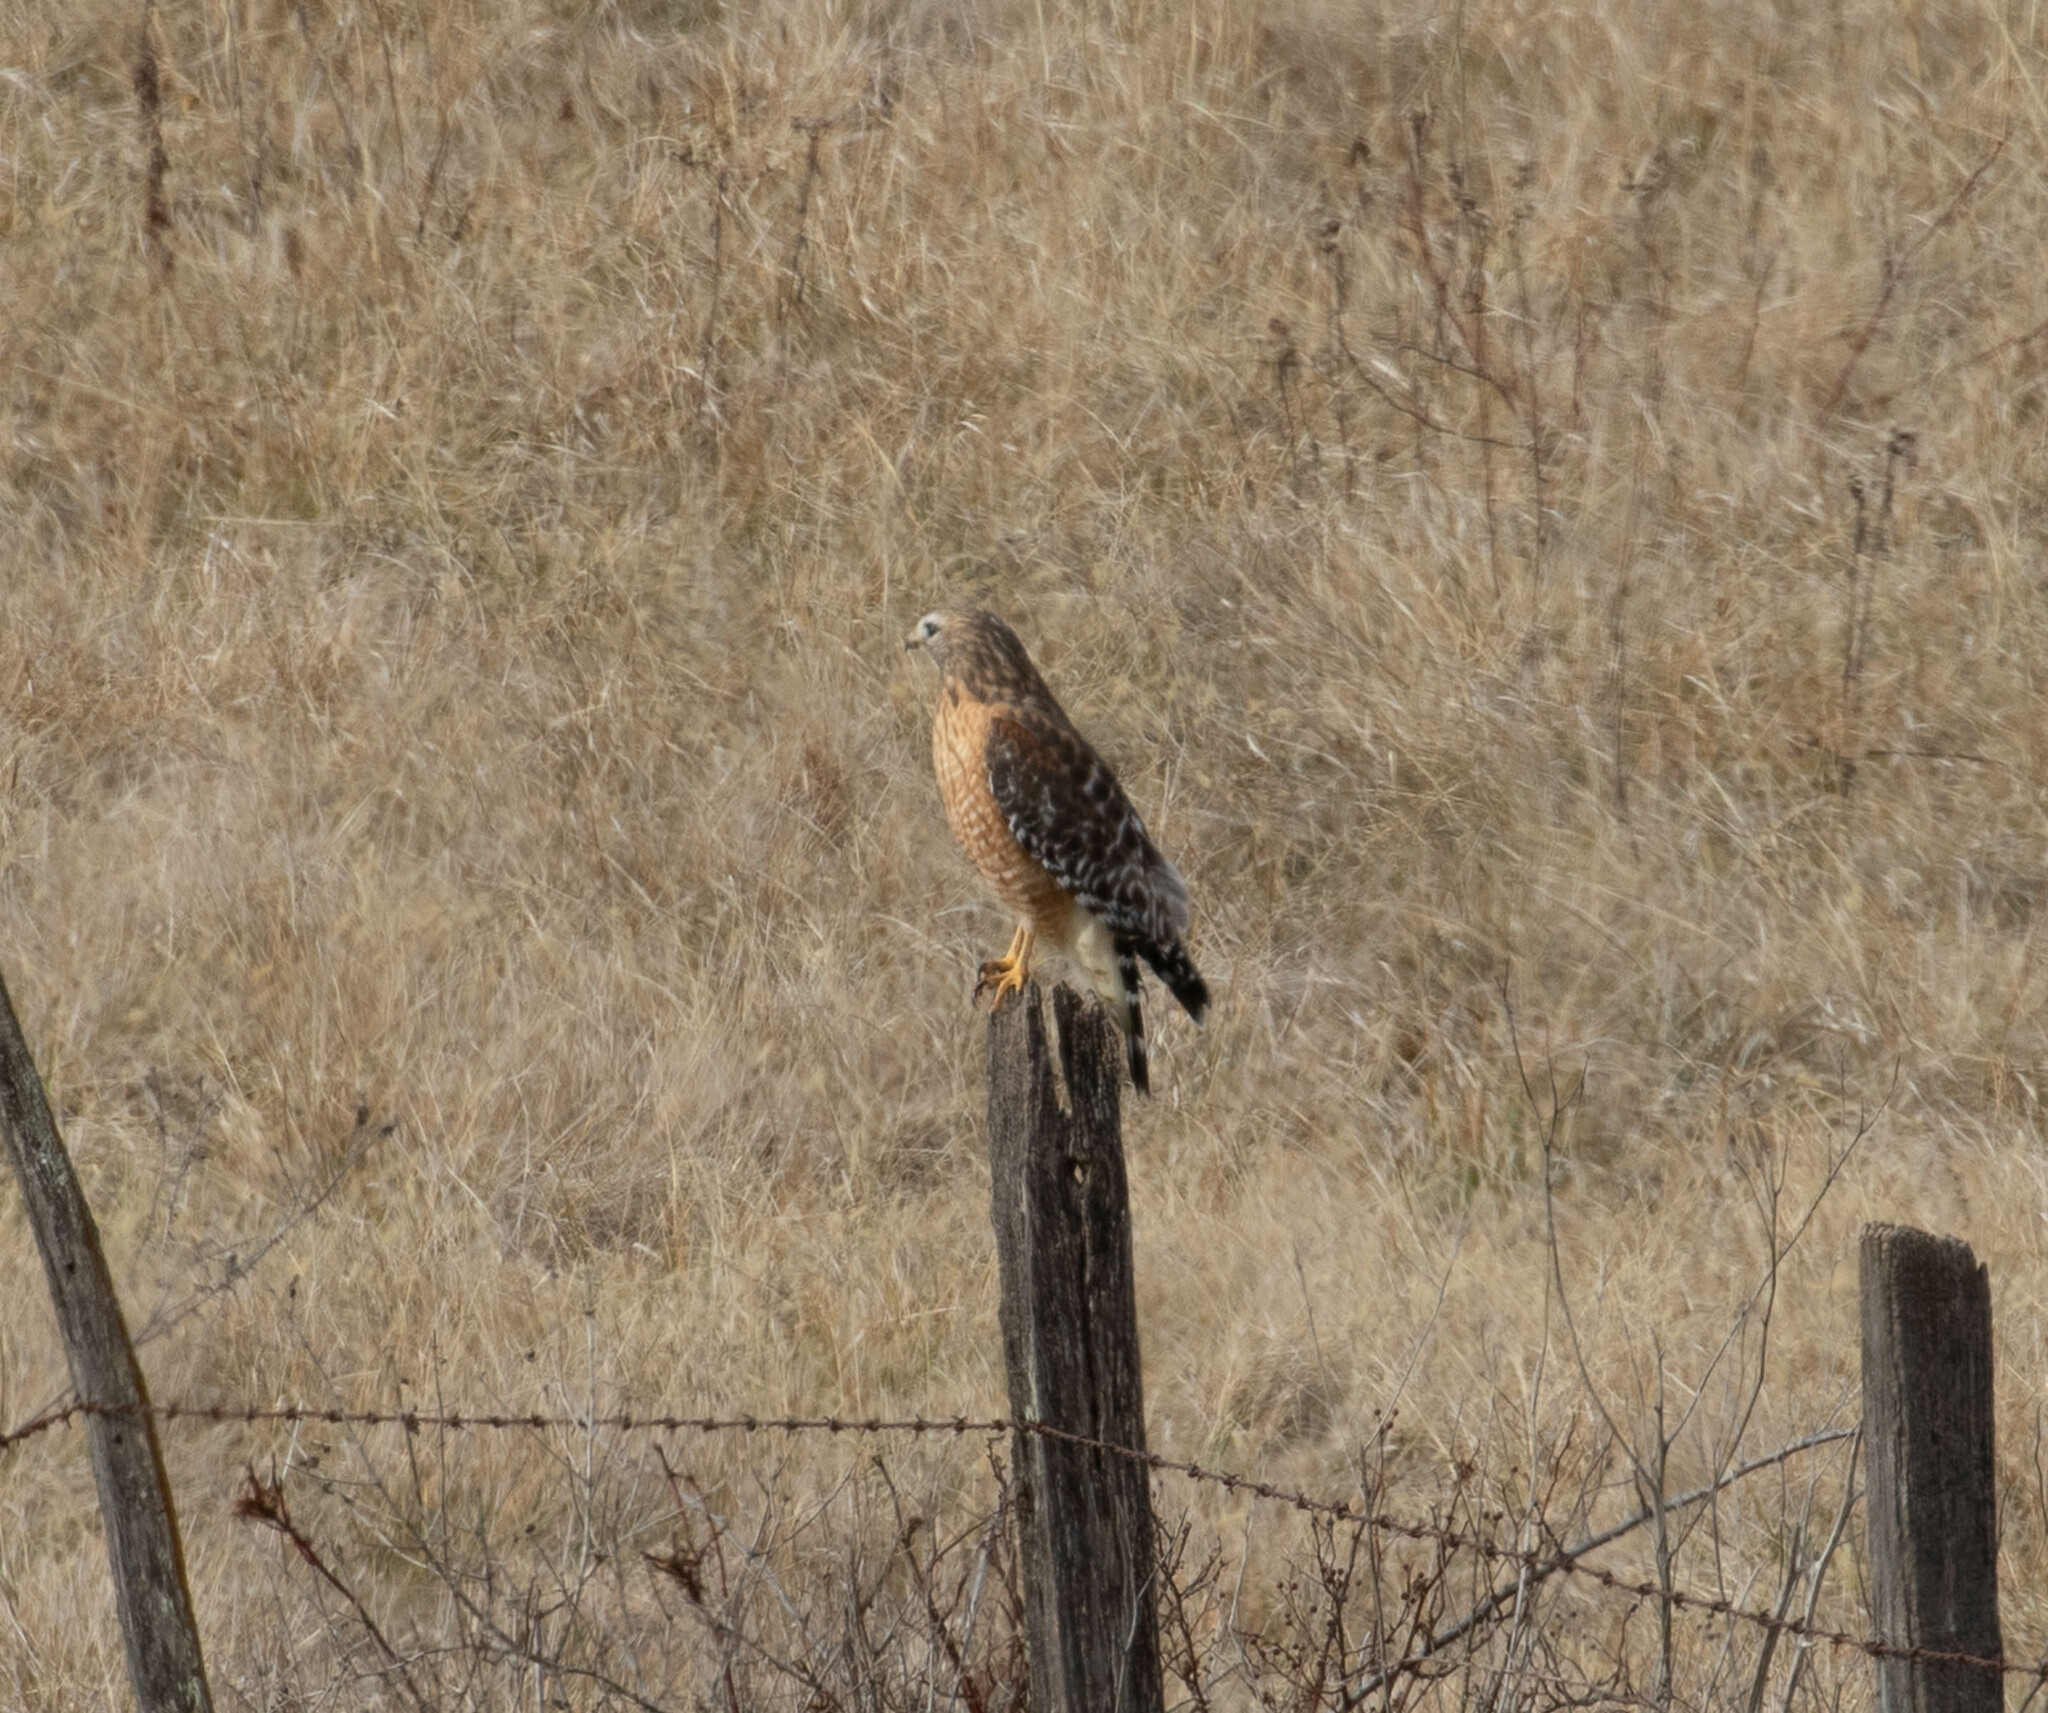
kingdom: Animalia
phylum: Chordata
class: Aves
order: Accipitriformes
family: Accipitridae
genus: Buteo
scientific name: Buteo lineatus
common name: Red-shouldered hawk
